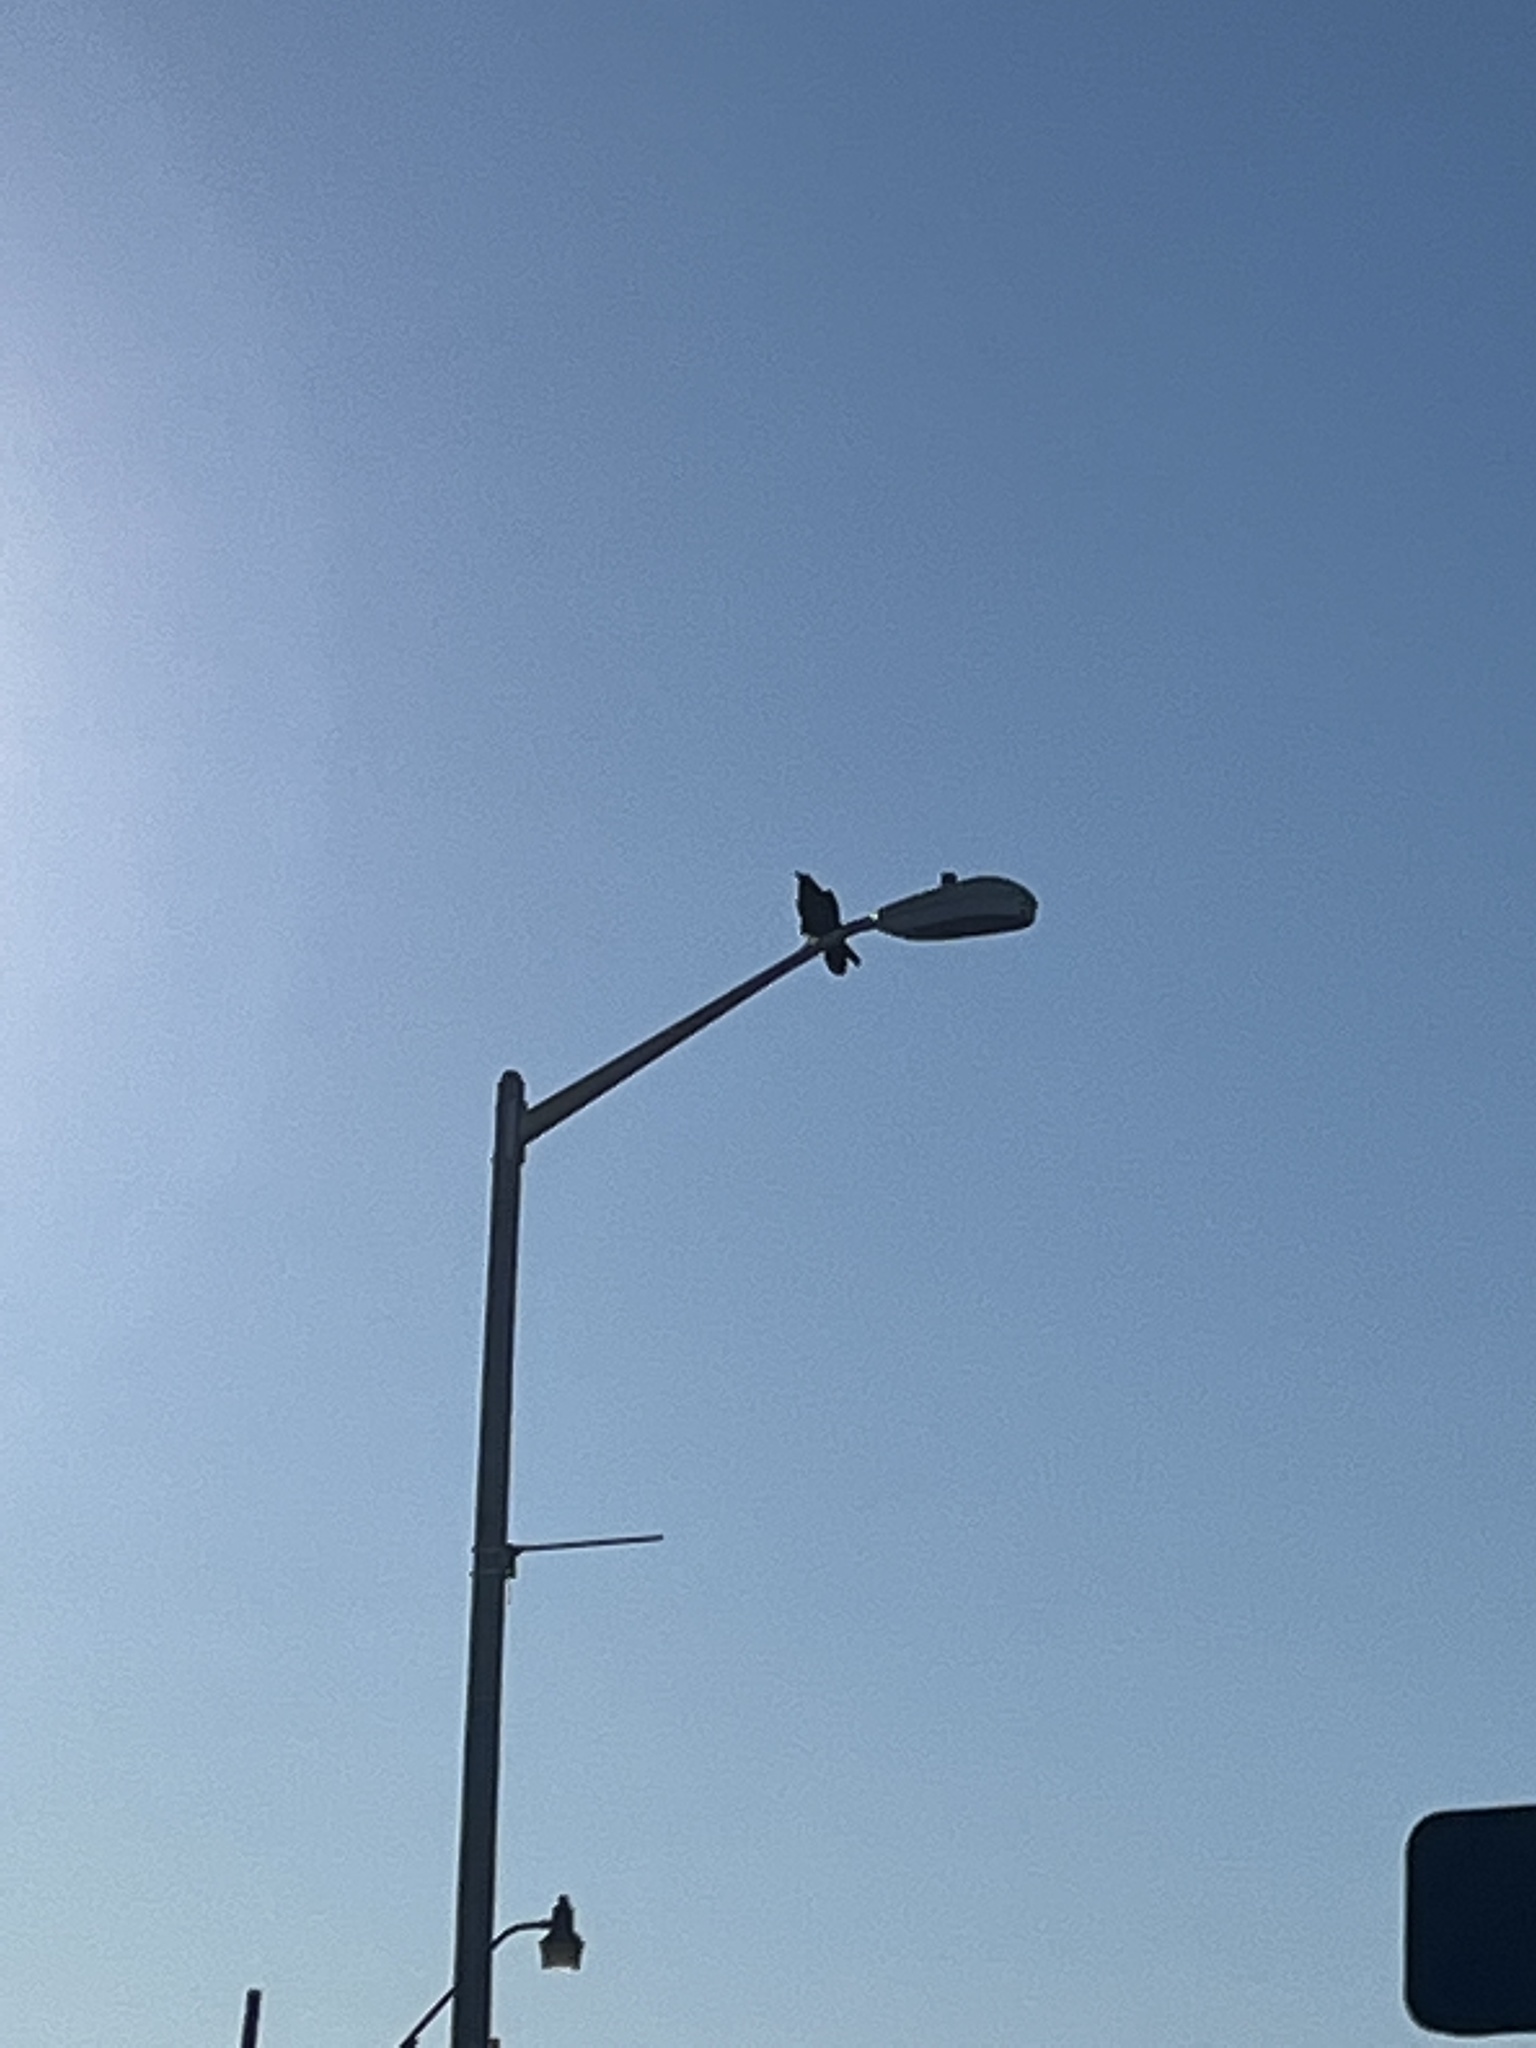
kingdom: Animalia
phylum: Chordata
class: Aves
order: Passeriformes
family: Corvidae
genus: Corvus
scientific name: Corvus corax
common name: Common raven
